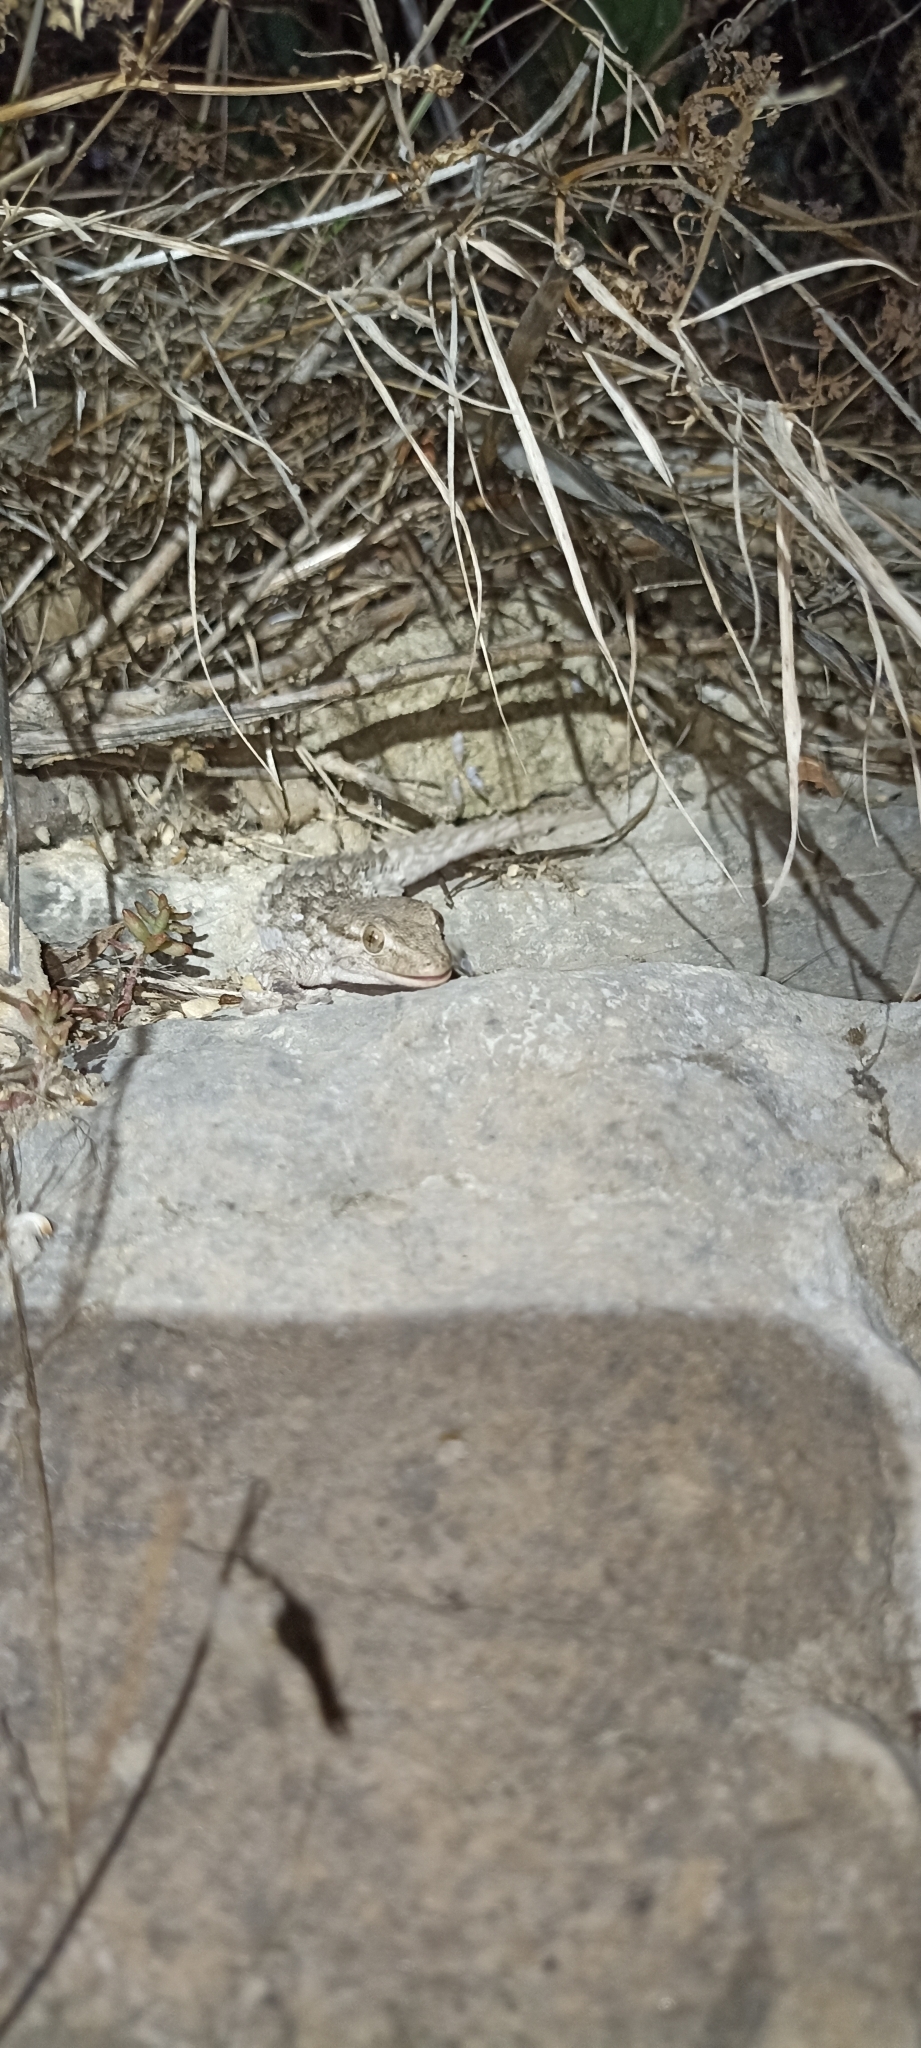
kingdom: Animalia
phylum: Chordata
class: Squamata
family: Phyllodactylidae
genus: Tarentola
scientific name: Tarentola mauritanica
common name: Moorish gecko
